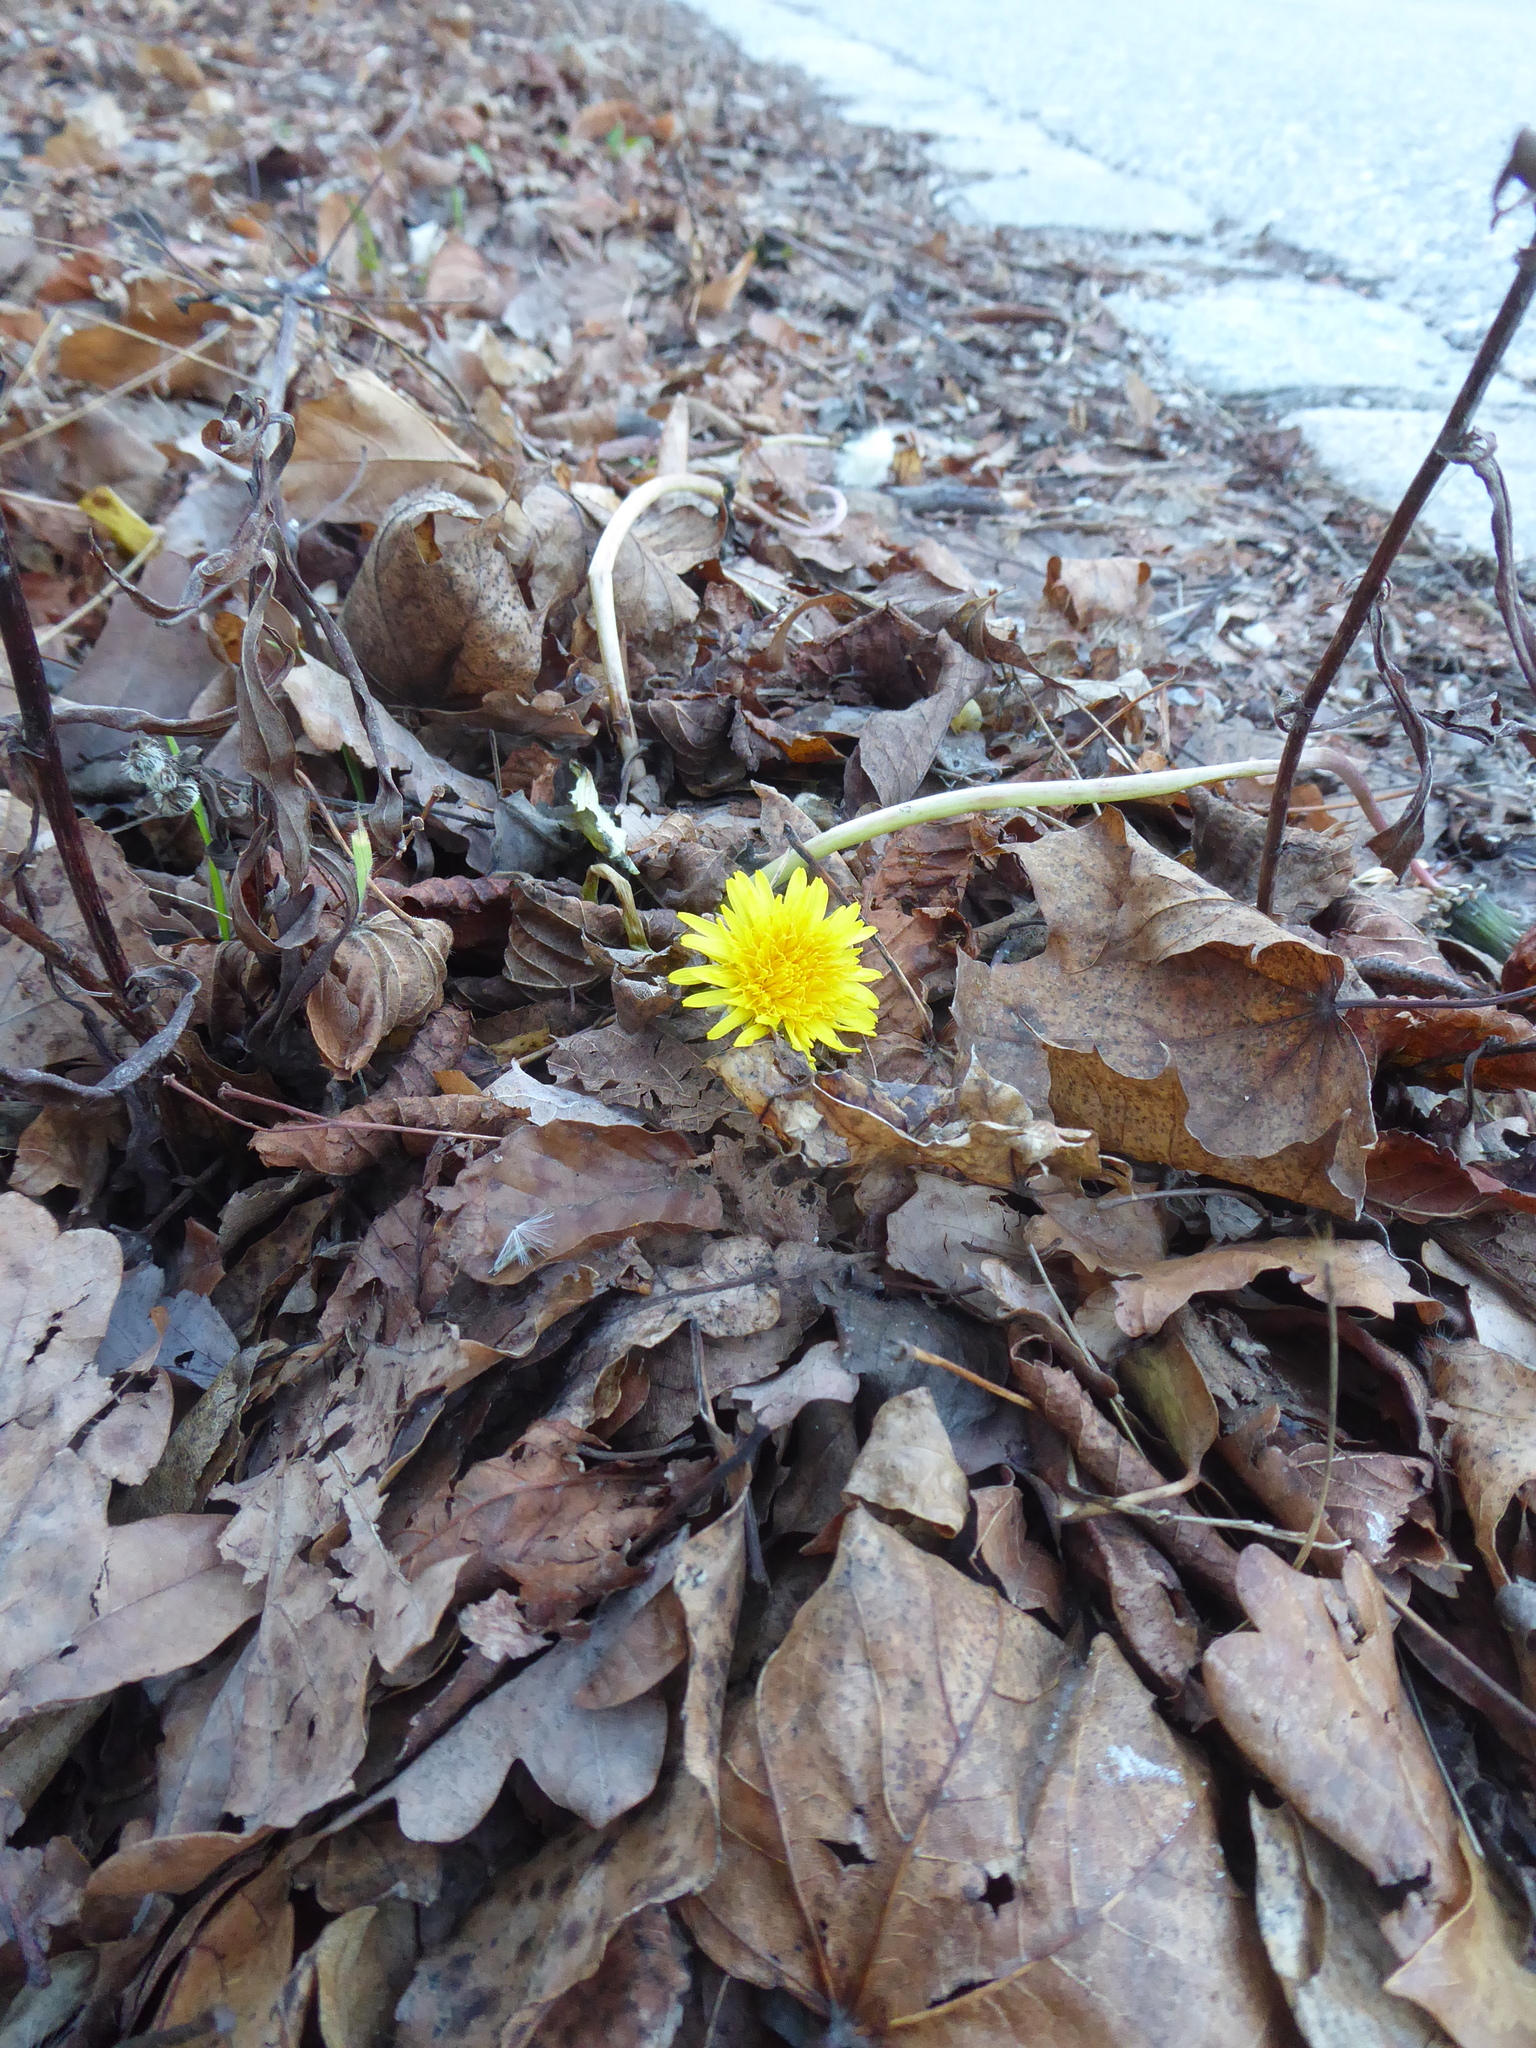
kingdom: Plantae
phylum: Tracheophyta
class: Magnoliopsida
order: Asterales
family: Asteraceae
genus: Taraxacum
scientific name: Taraxacum
